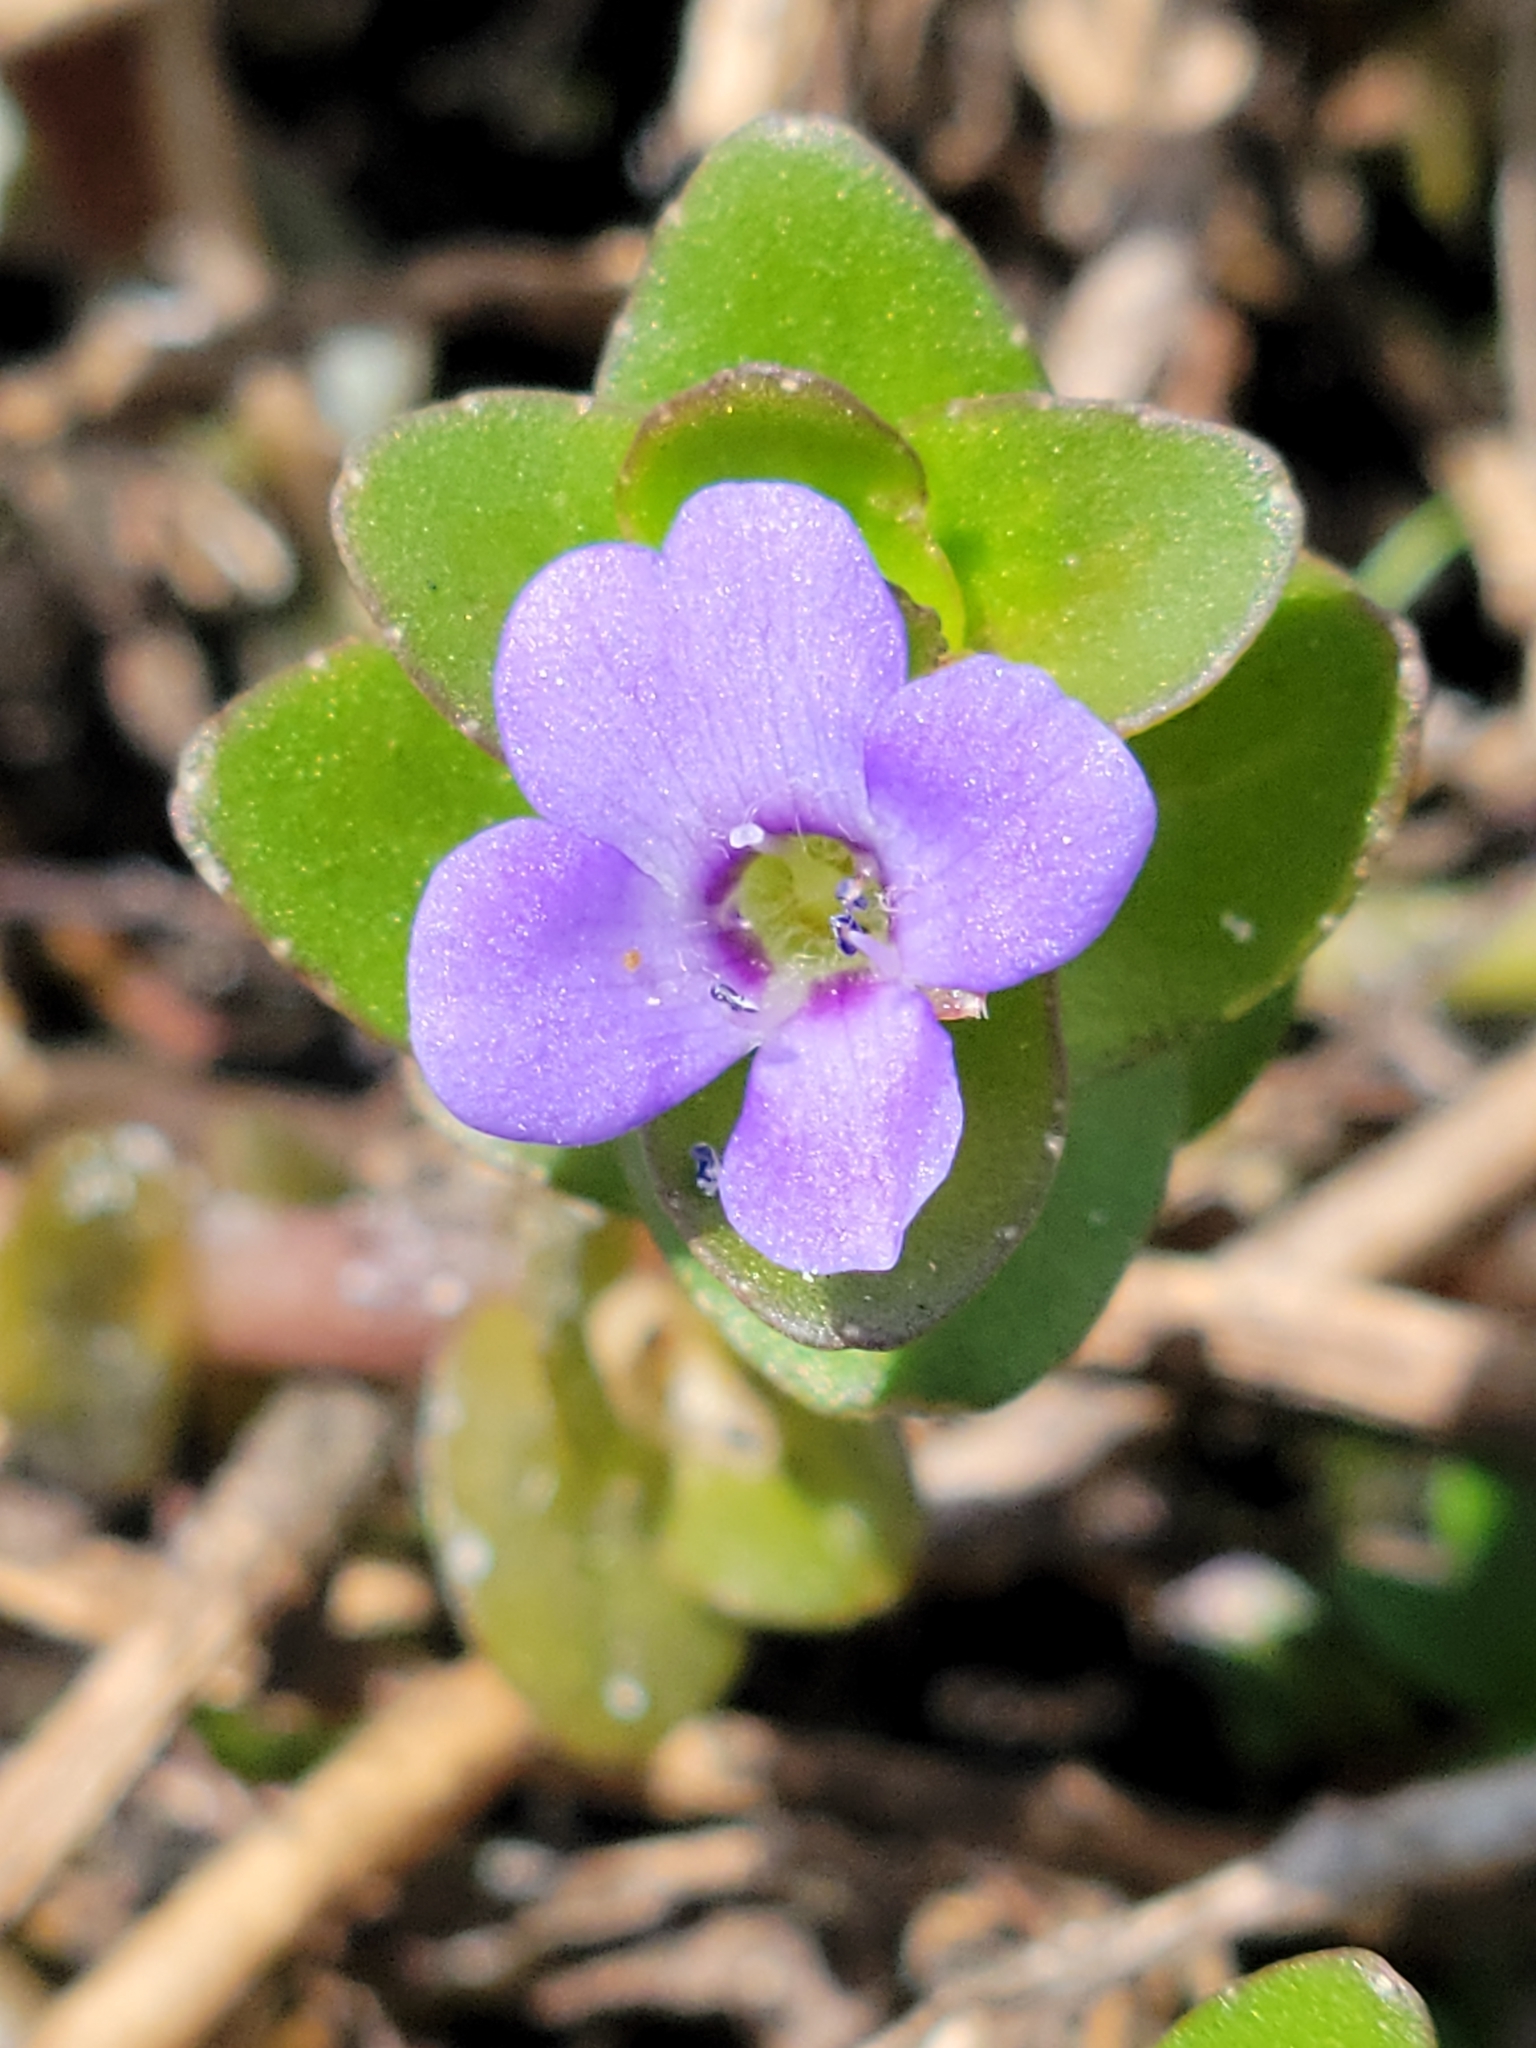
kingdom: Plantae
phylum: Tracheophyta
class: Magnoliopsida
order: Lamiales
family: Plantaginaceae
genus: Bacopa
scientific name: Bacopa caroliniana
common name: Lemon bacopa
